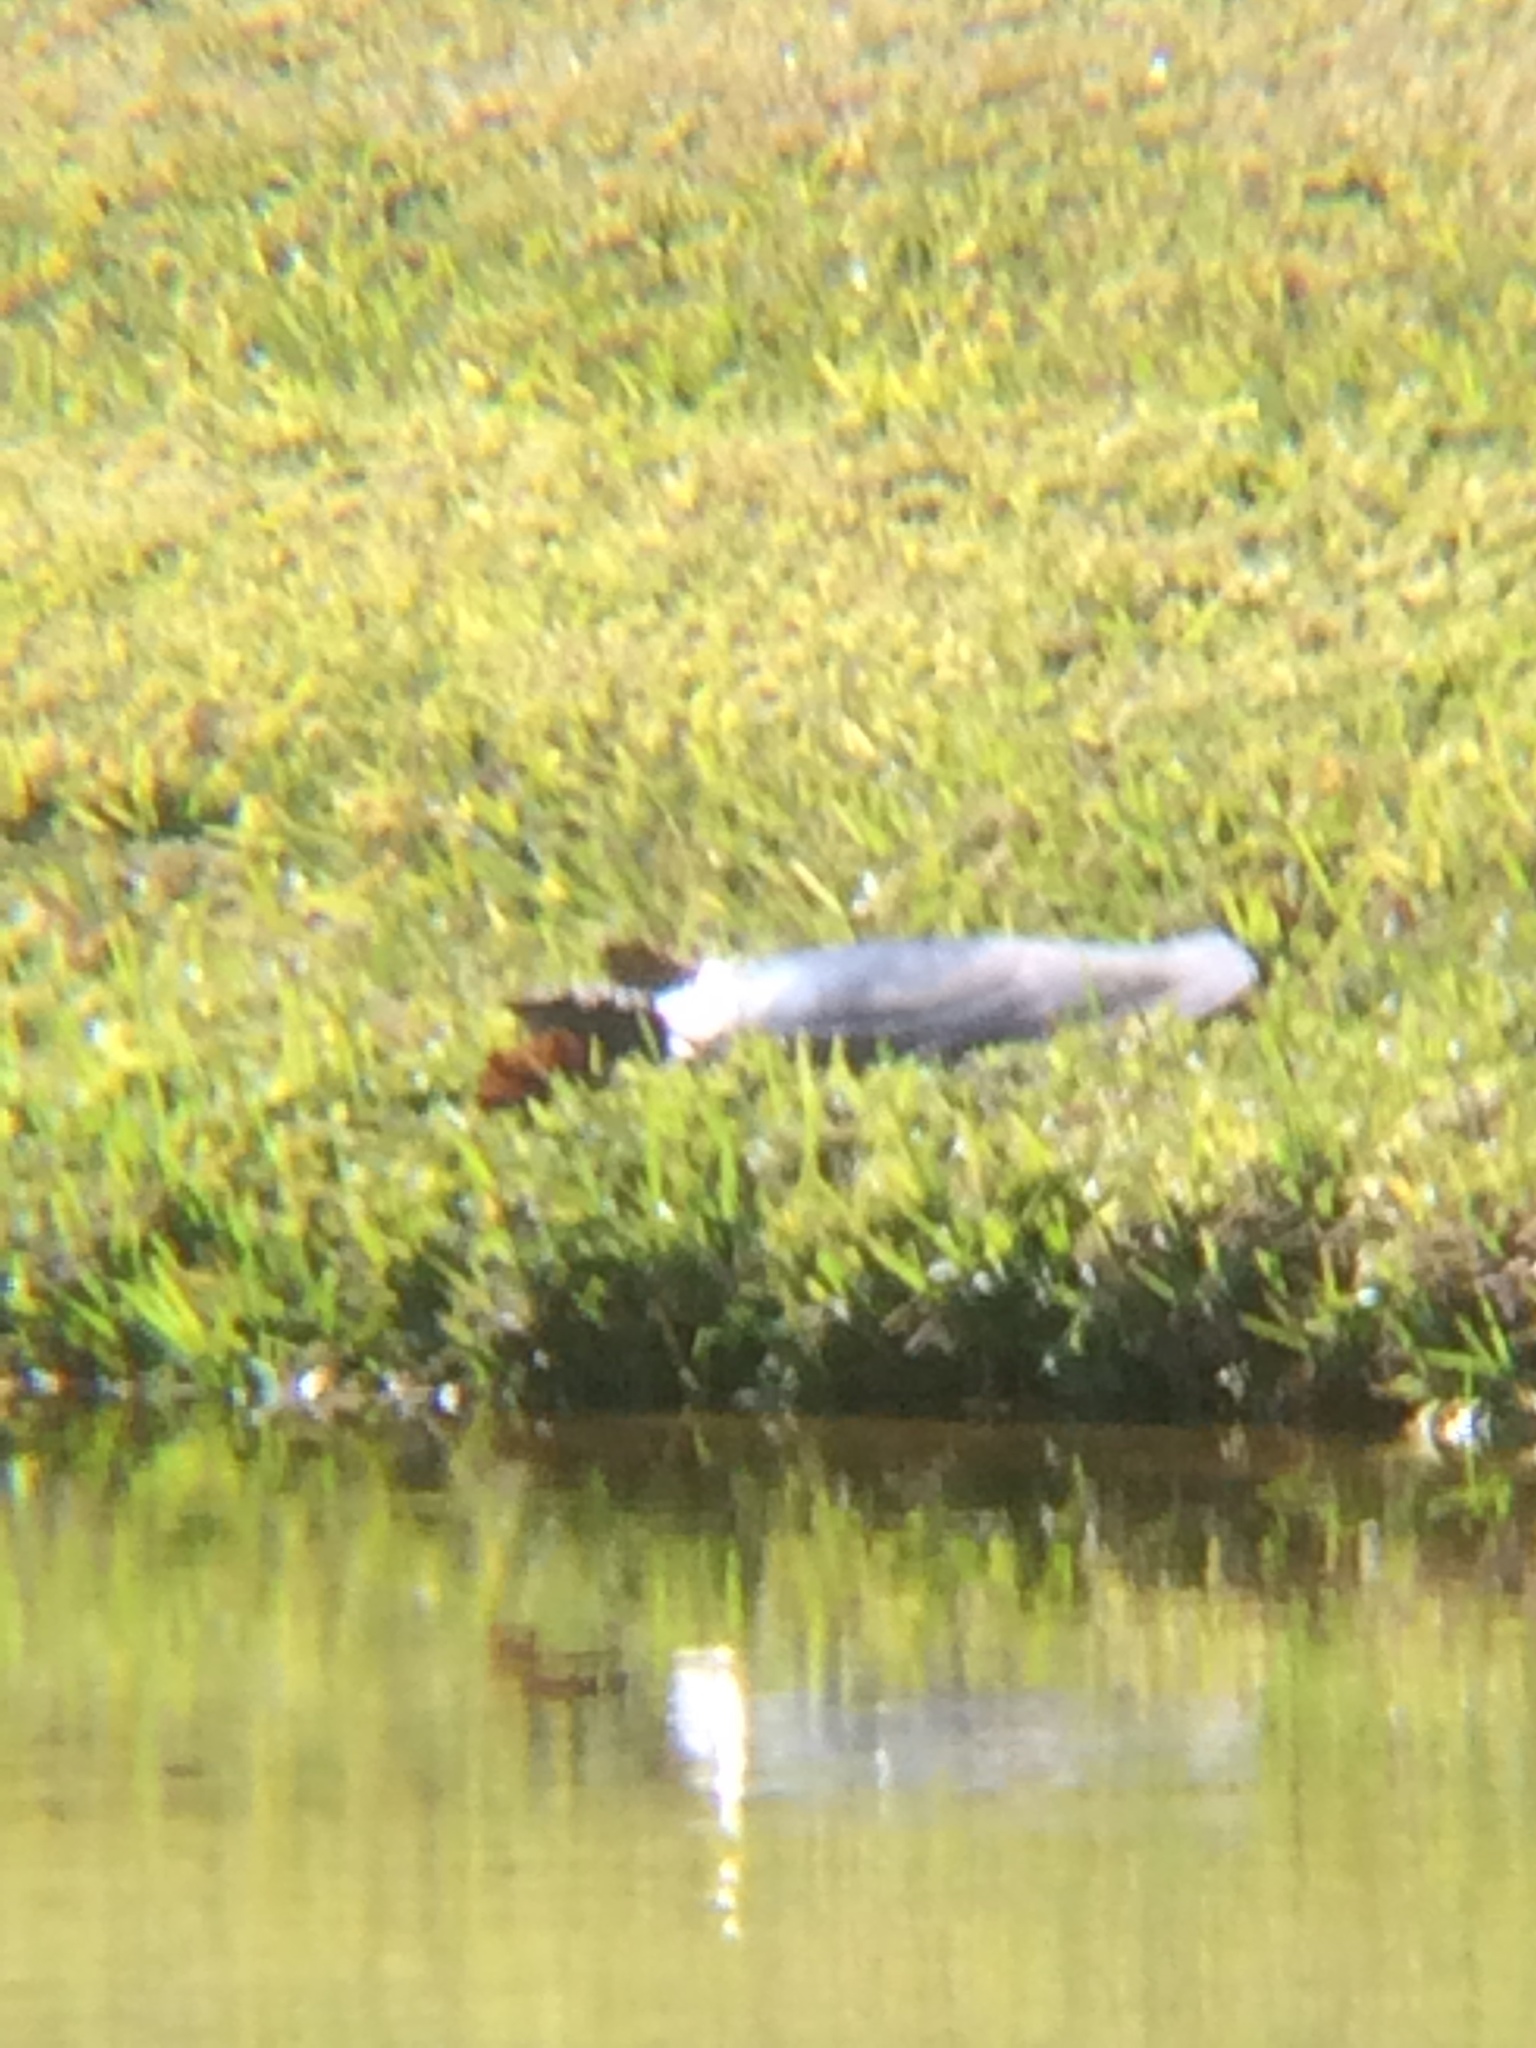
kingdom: Animalia
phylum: Chordata
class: Testudines
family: Trionychidae
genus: Apalone
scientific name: Apalone ferox
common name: Florida softshell turtle
